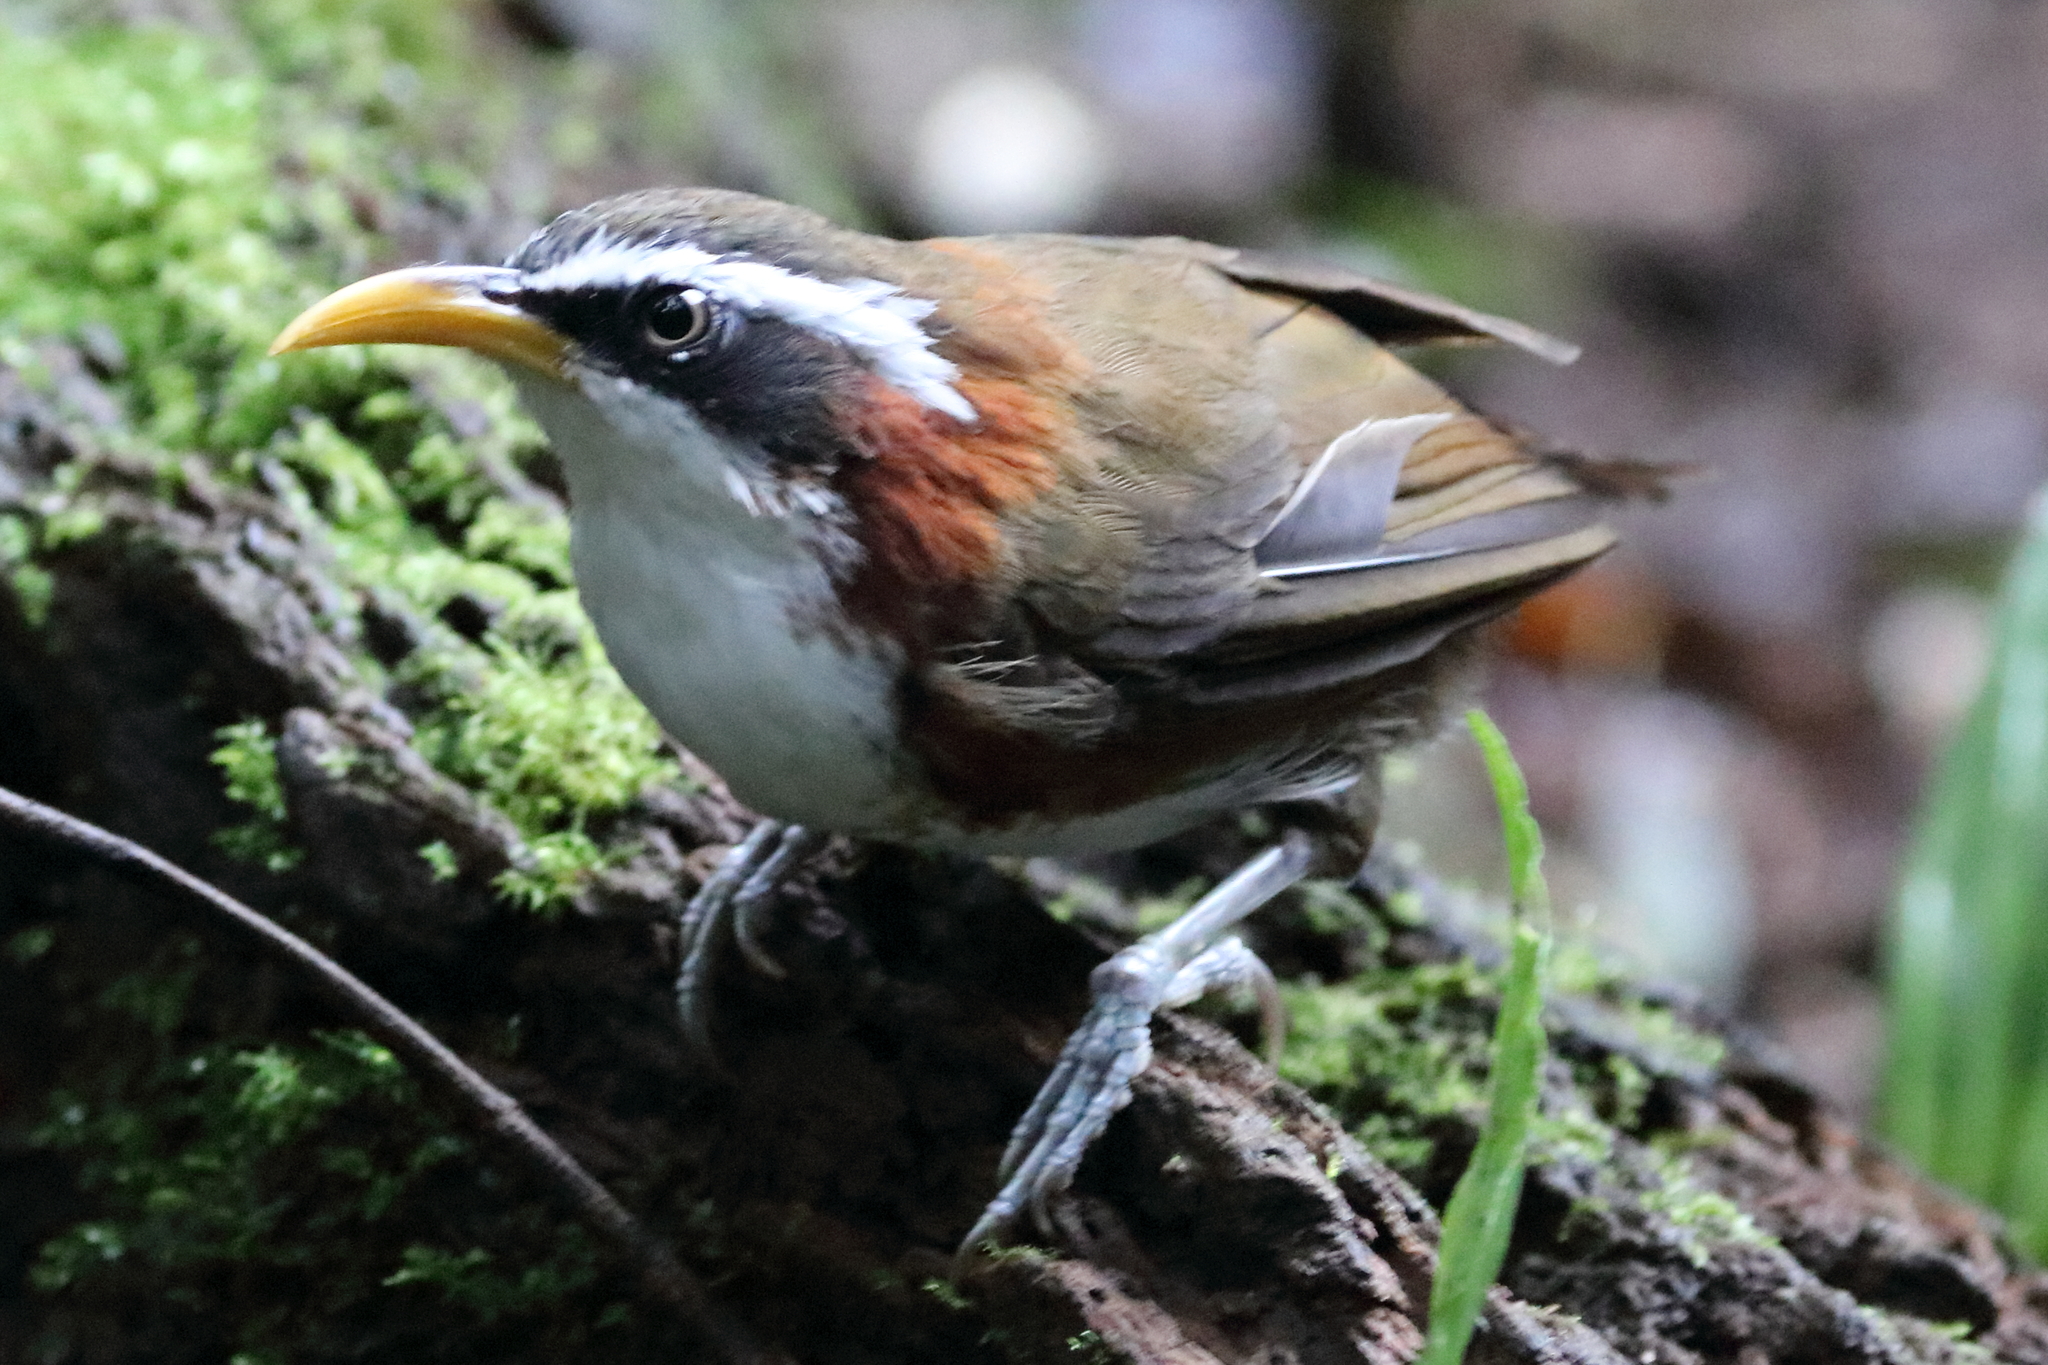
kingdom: Animalia
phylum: Chordata
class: Aves
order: Passeriformes
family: Timaliidae
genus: Pomatorhinus
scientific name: Pomatorhinus schisticeps
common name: White-browed scimitar babbler
